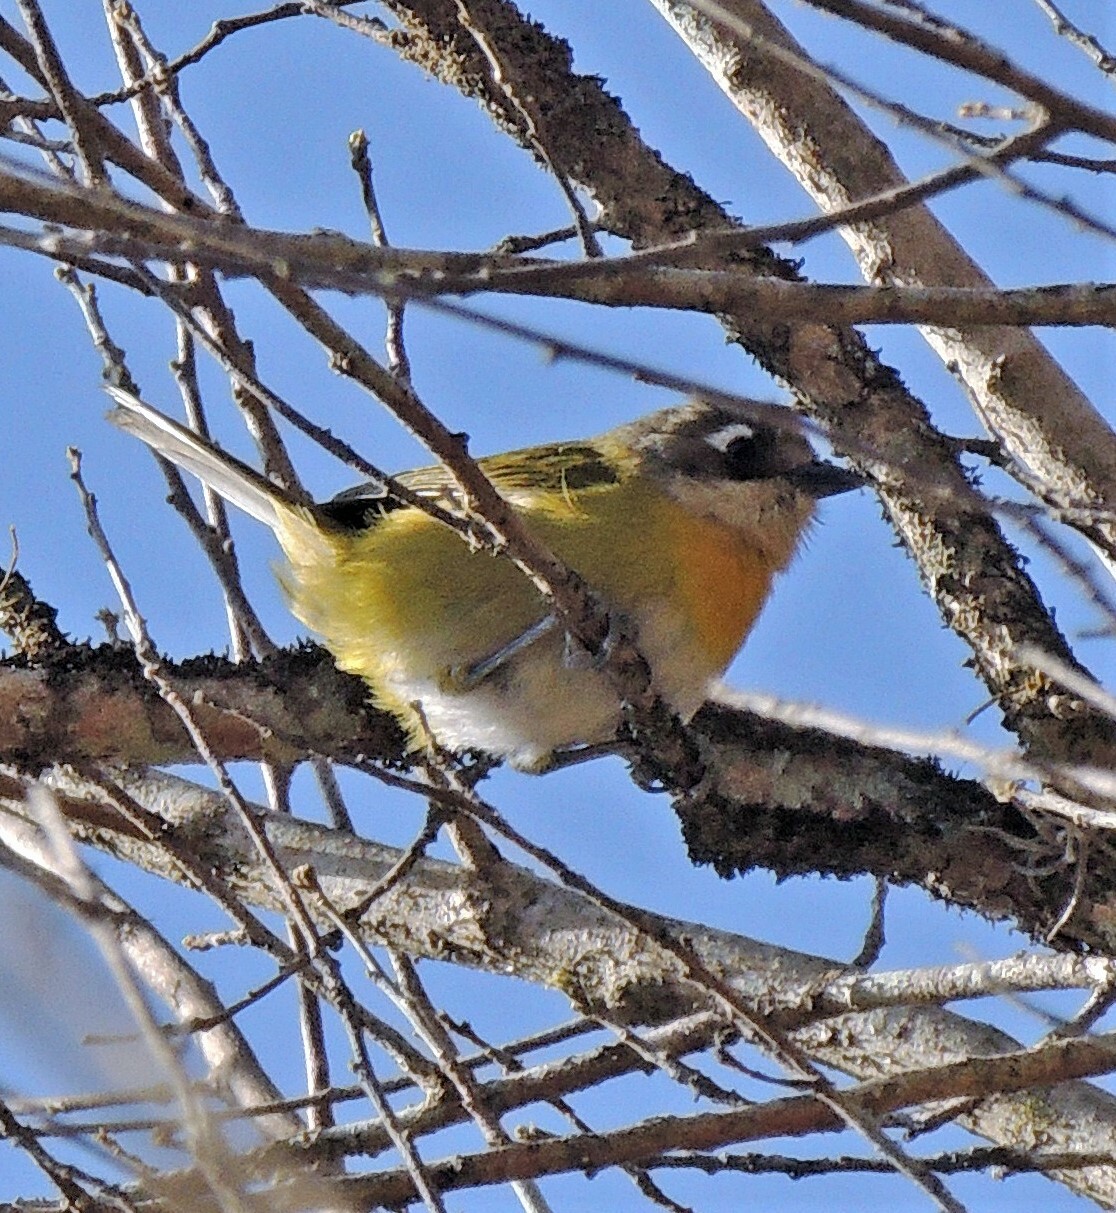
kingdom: Animalia
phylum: Chordata
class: Aves
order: Passeriformes
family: Passerellidae
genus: Chlorospingus
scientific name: Chlorospingus flavopectus
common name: Common chlorospingus
